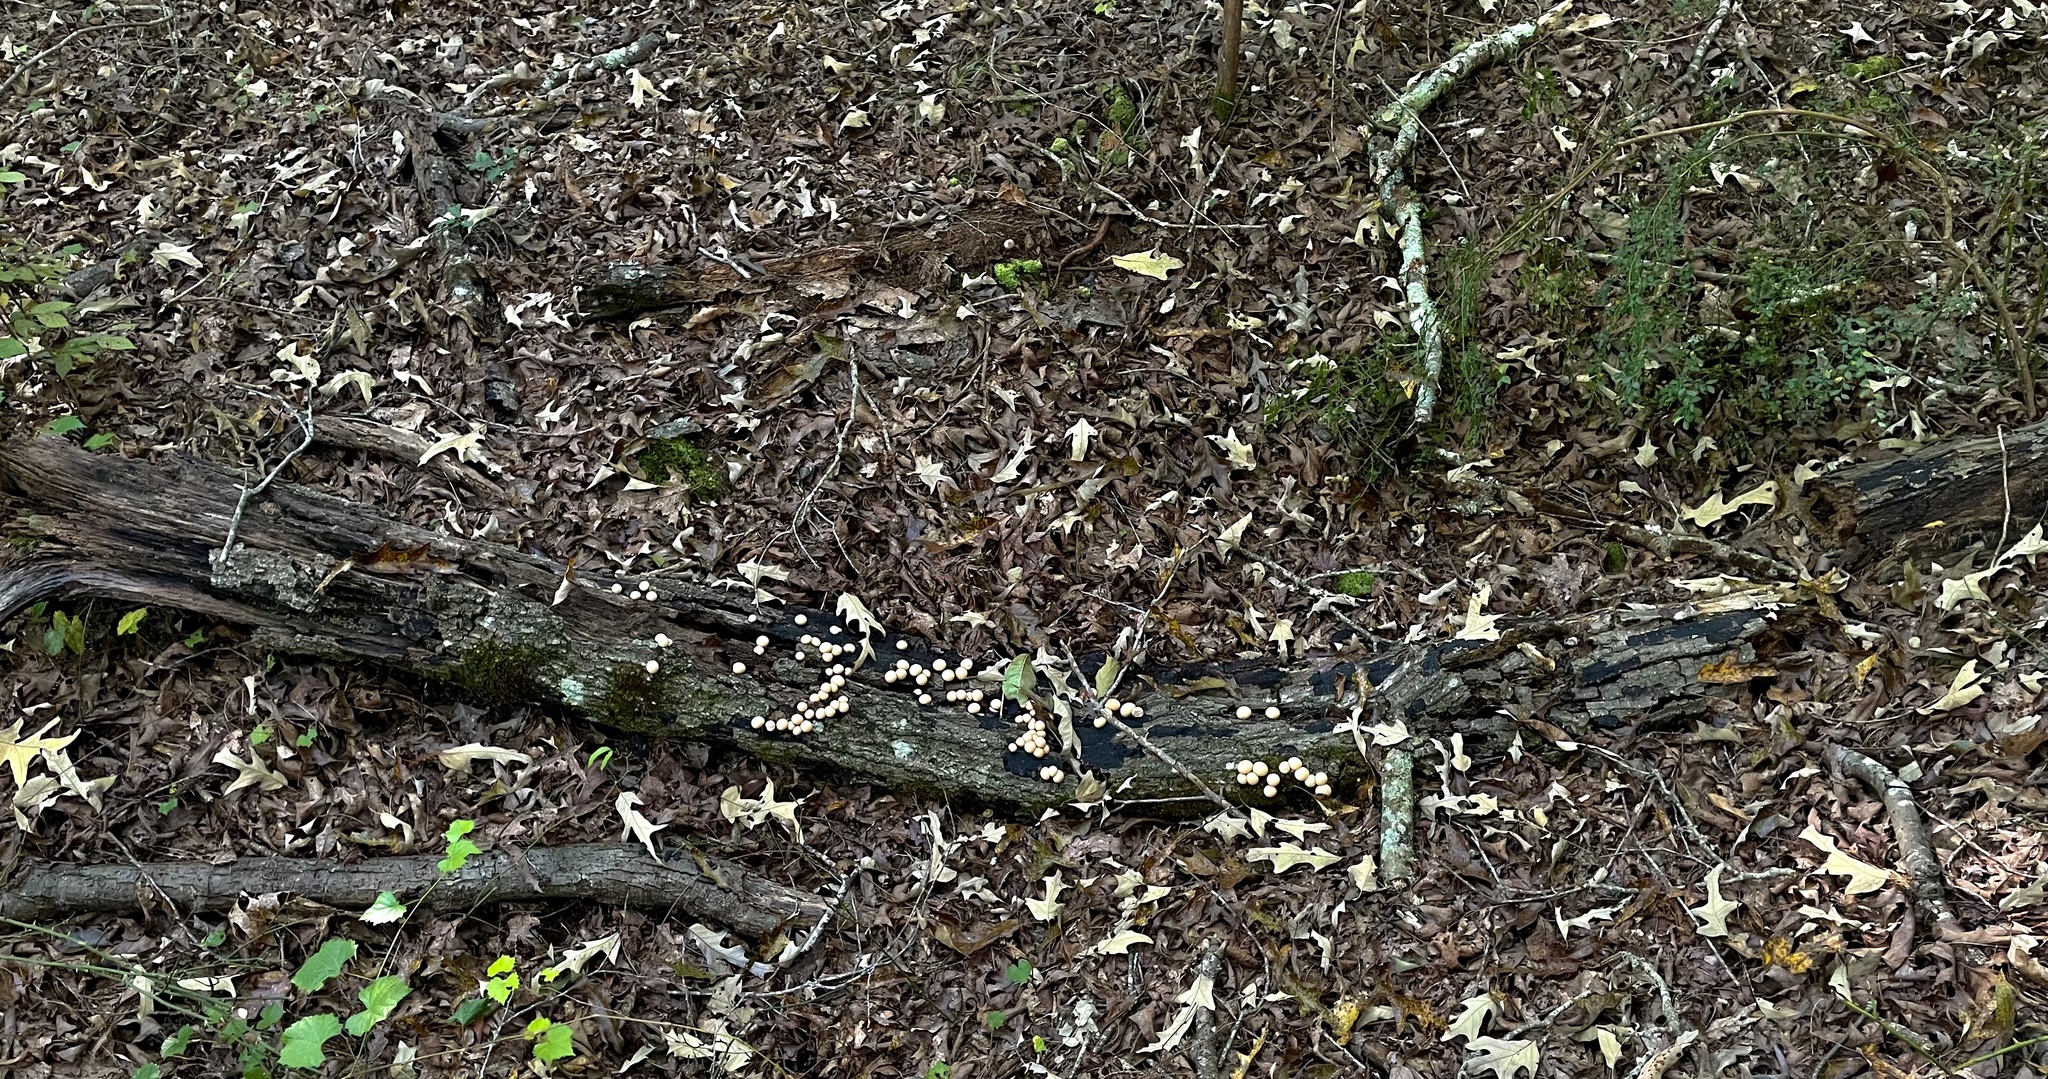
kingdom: Fungi
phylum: Basidiomycota
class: Agaricomycetes
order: Agaricales
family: Lycoperdaceae
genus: Apioperdon
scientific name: Apioperdon pyriforme
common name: Pear-shaped puffball
